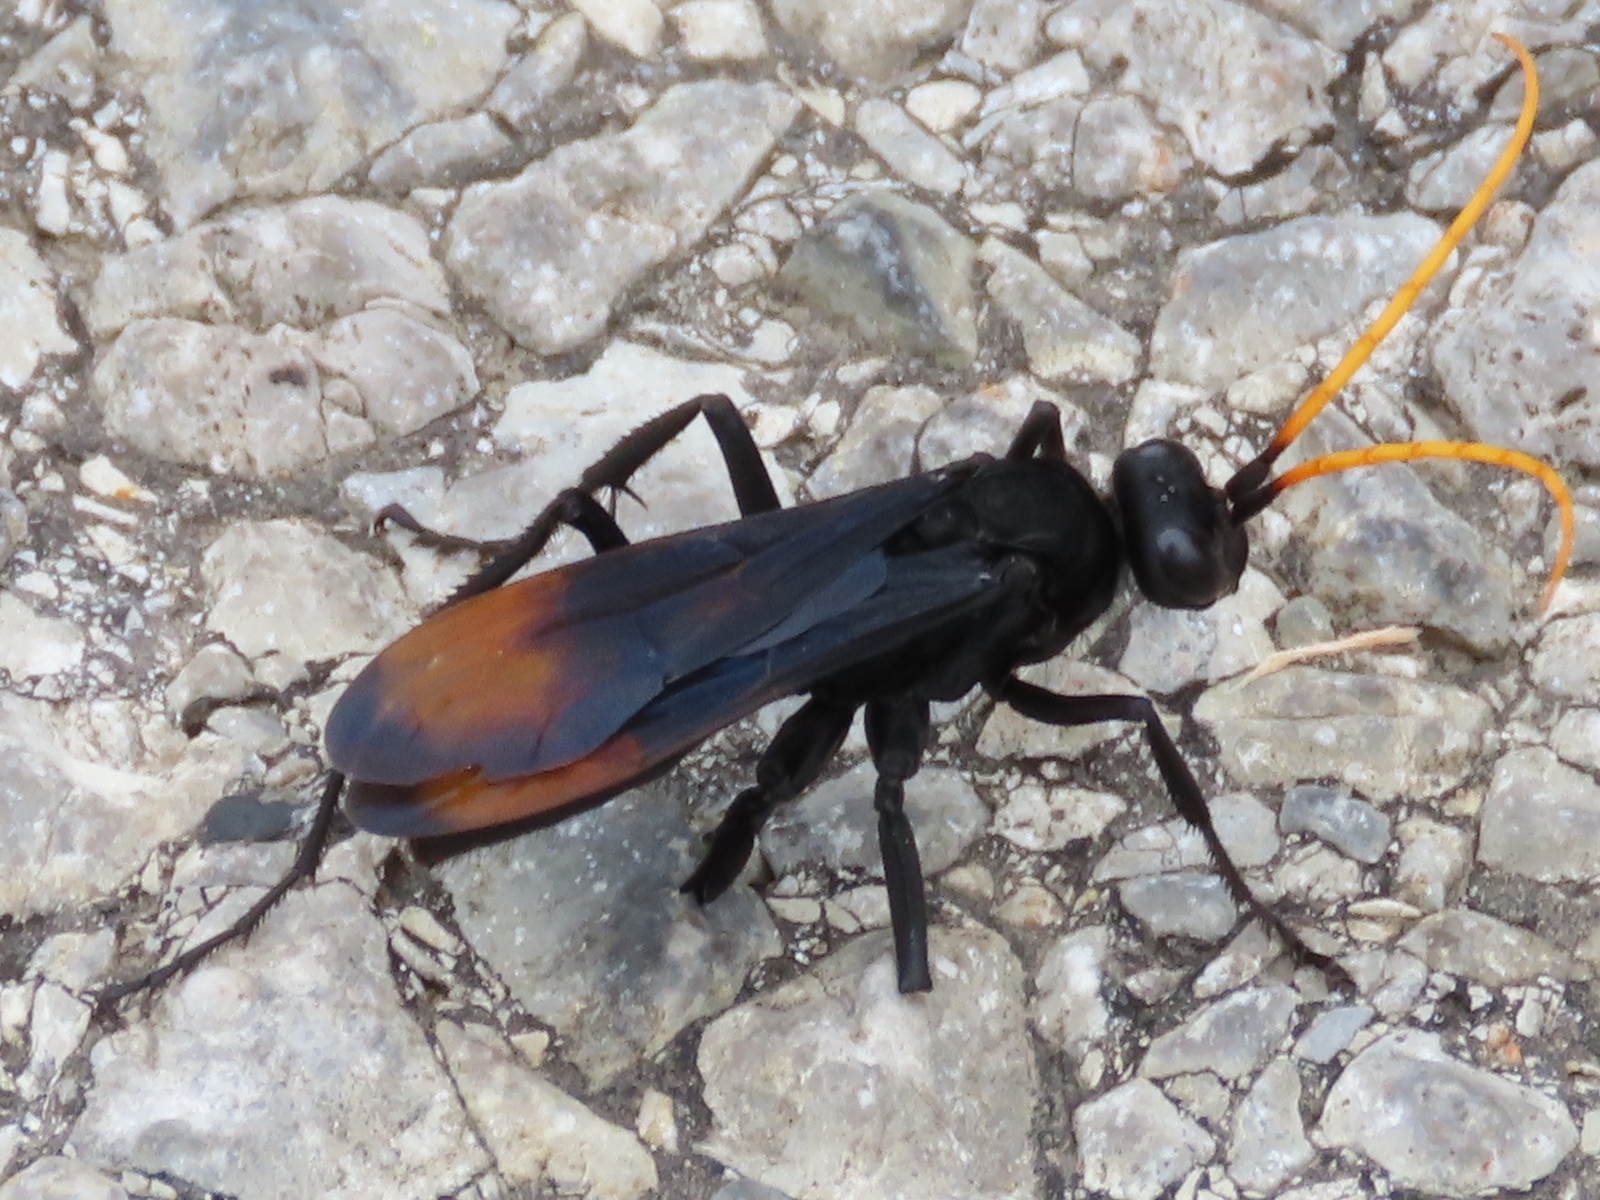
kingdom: Animalia
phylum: Arthropoda
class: Insecta
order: Hymenoptera
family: Pompilidae
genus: Entypus
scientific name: Entypus unifasciatus
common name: Eastern tawny-horned spider wasp
